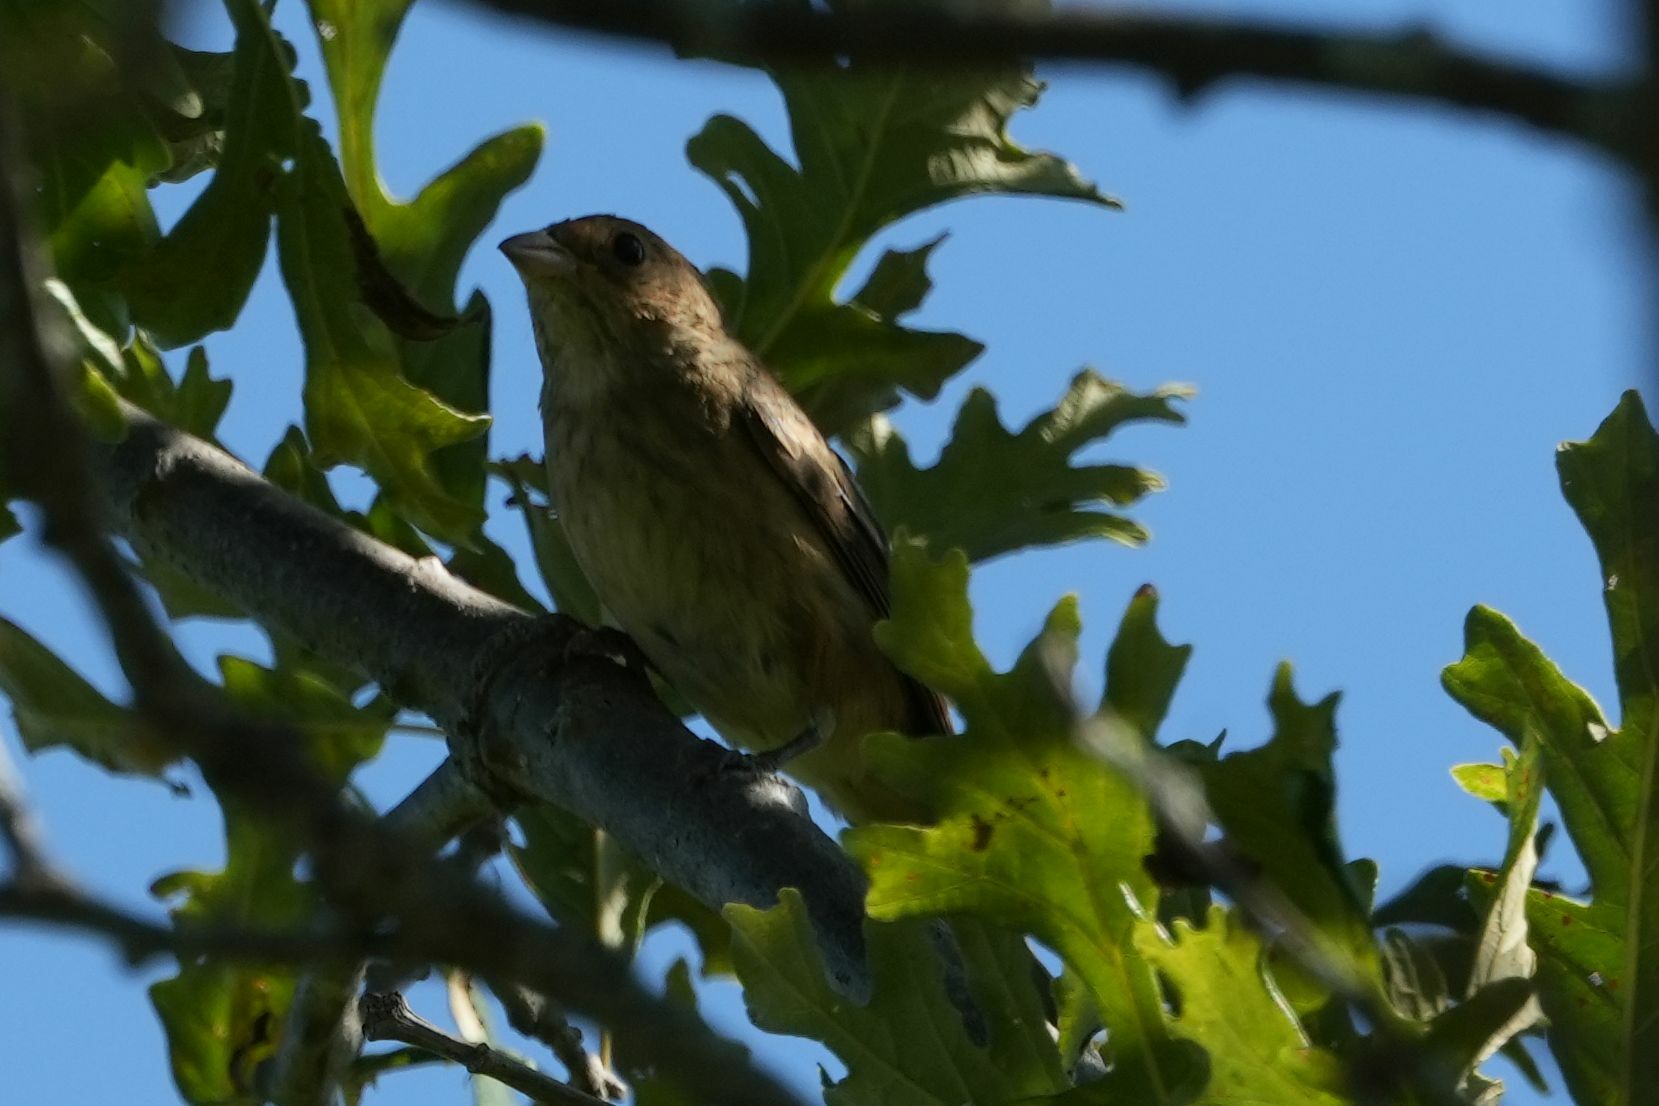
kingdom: Animalia
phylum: Chordata
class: Aves
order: Passeriformes
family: Cardinalidae
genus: Passerina
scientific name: Passerina cyanea
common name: Indigo bunting
